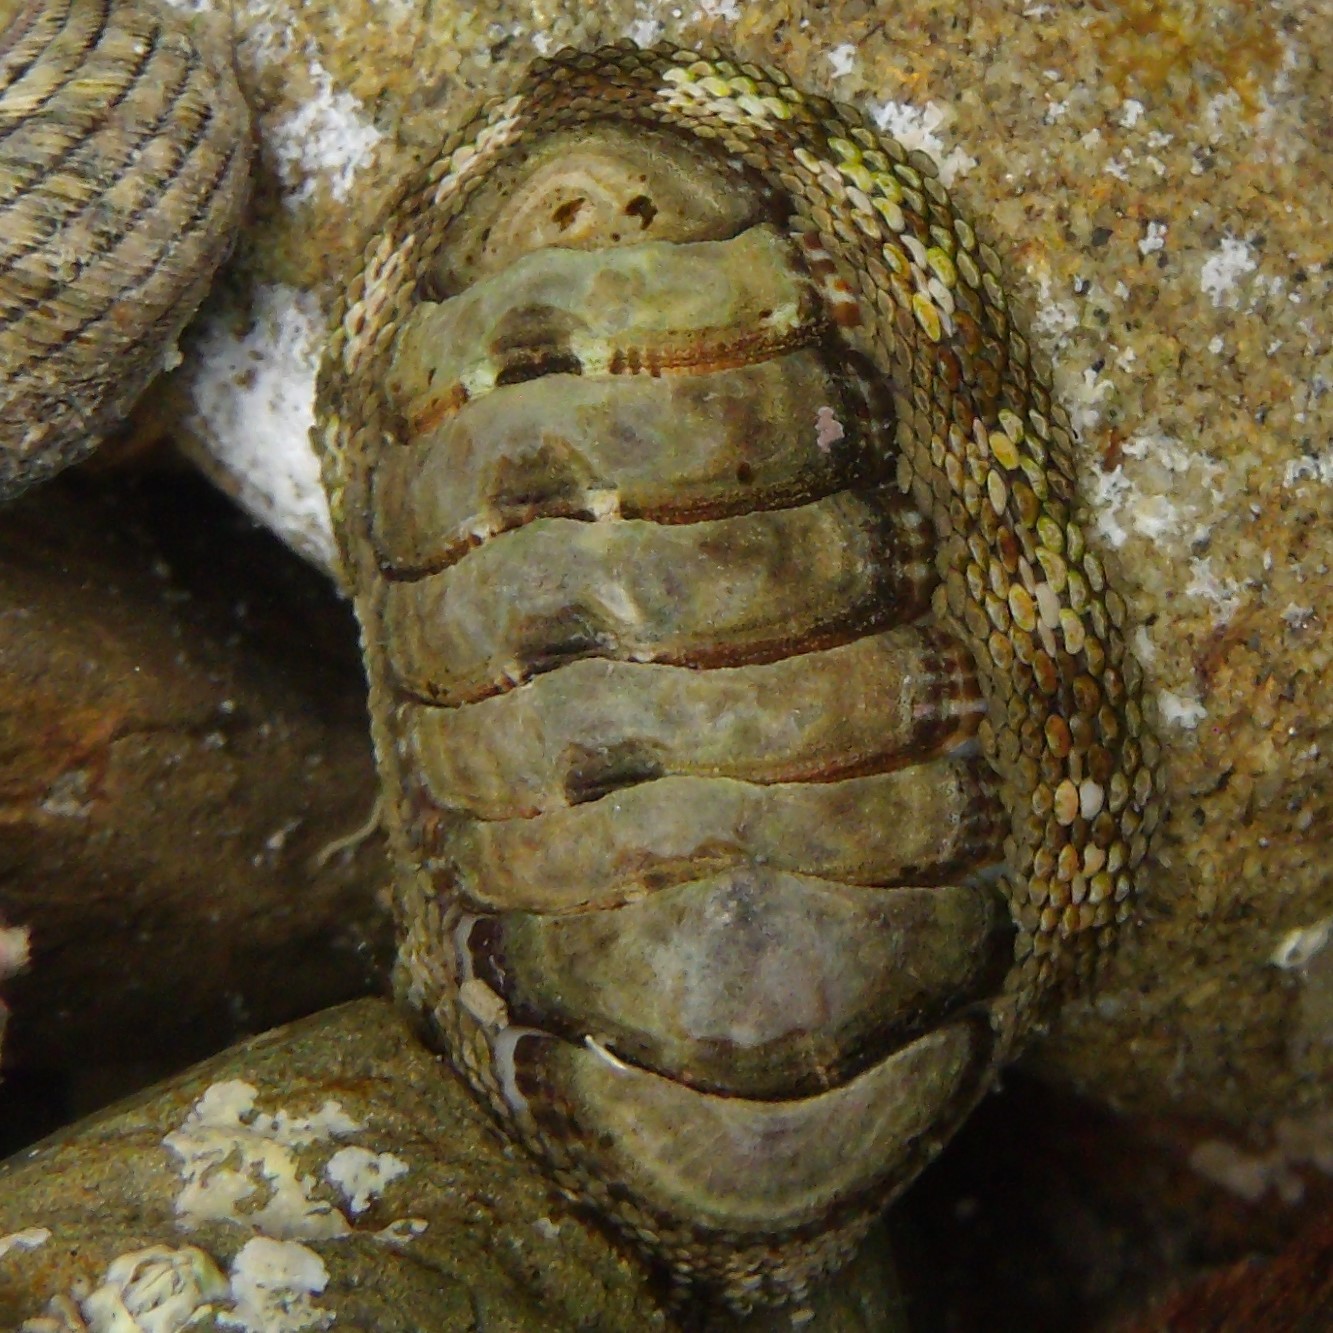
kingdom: Animalia
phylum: Mollusca
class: Polyplacophora
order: Chitonida
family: Chitonidae
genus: Sypharochiton
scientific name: Sypharochiton pelliserpentis
